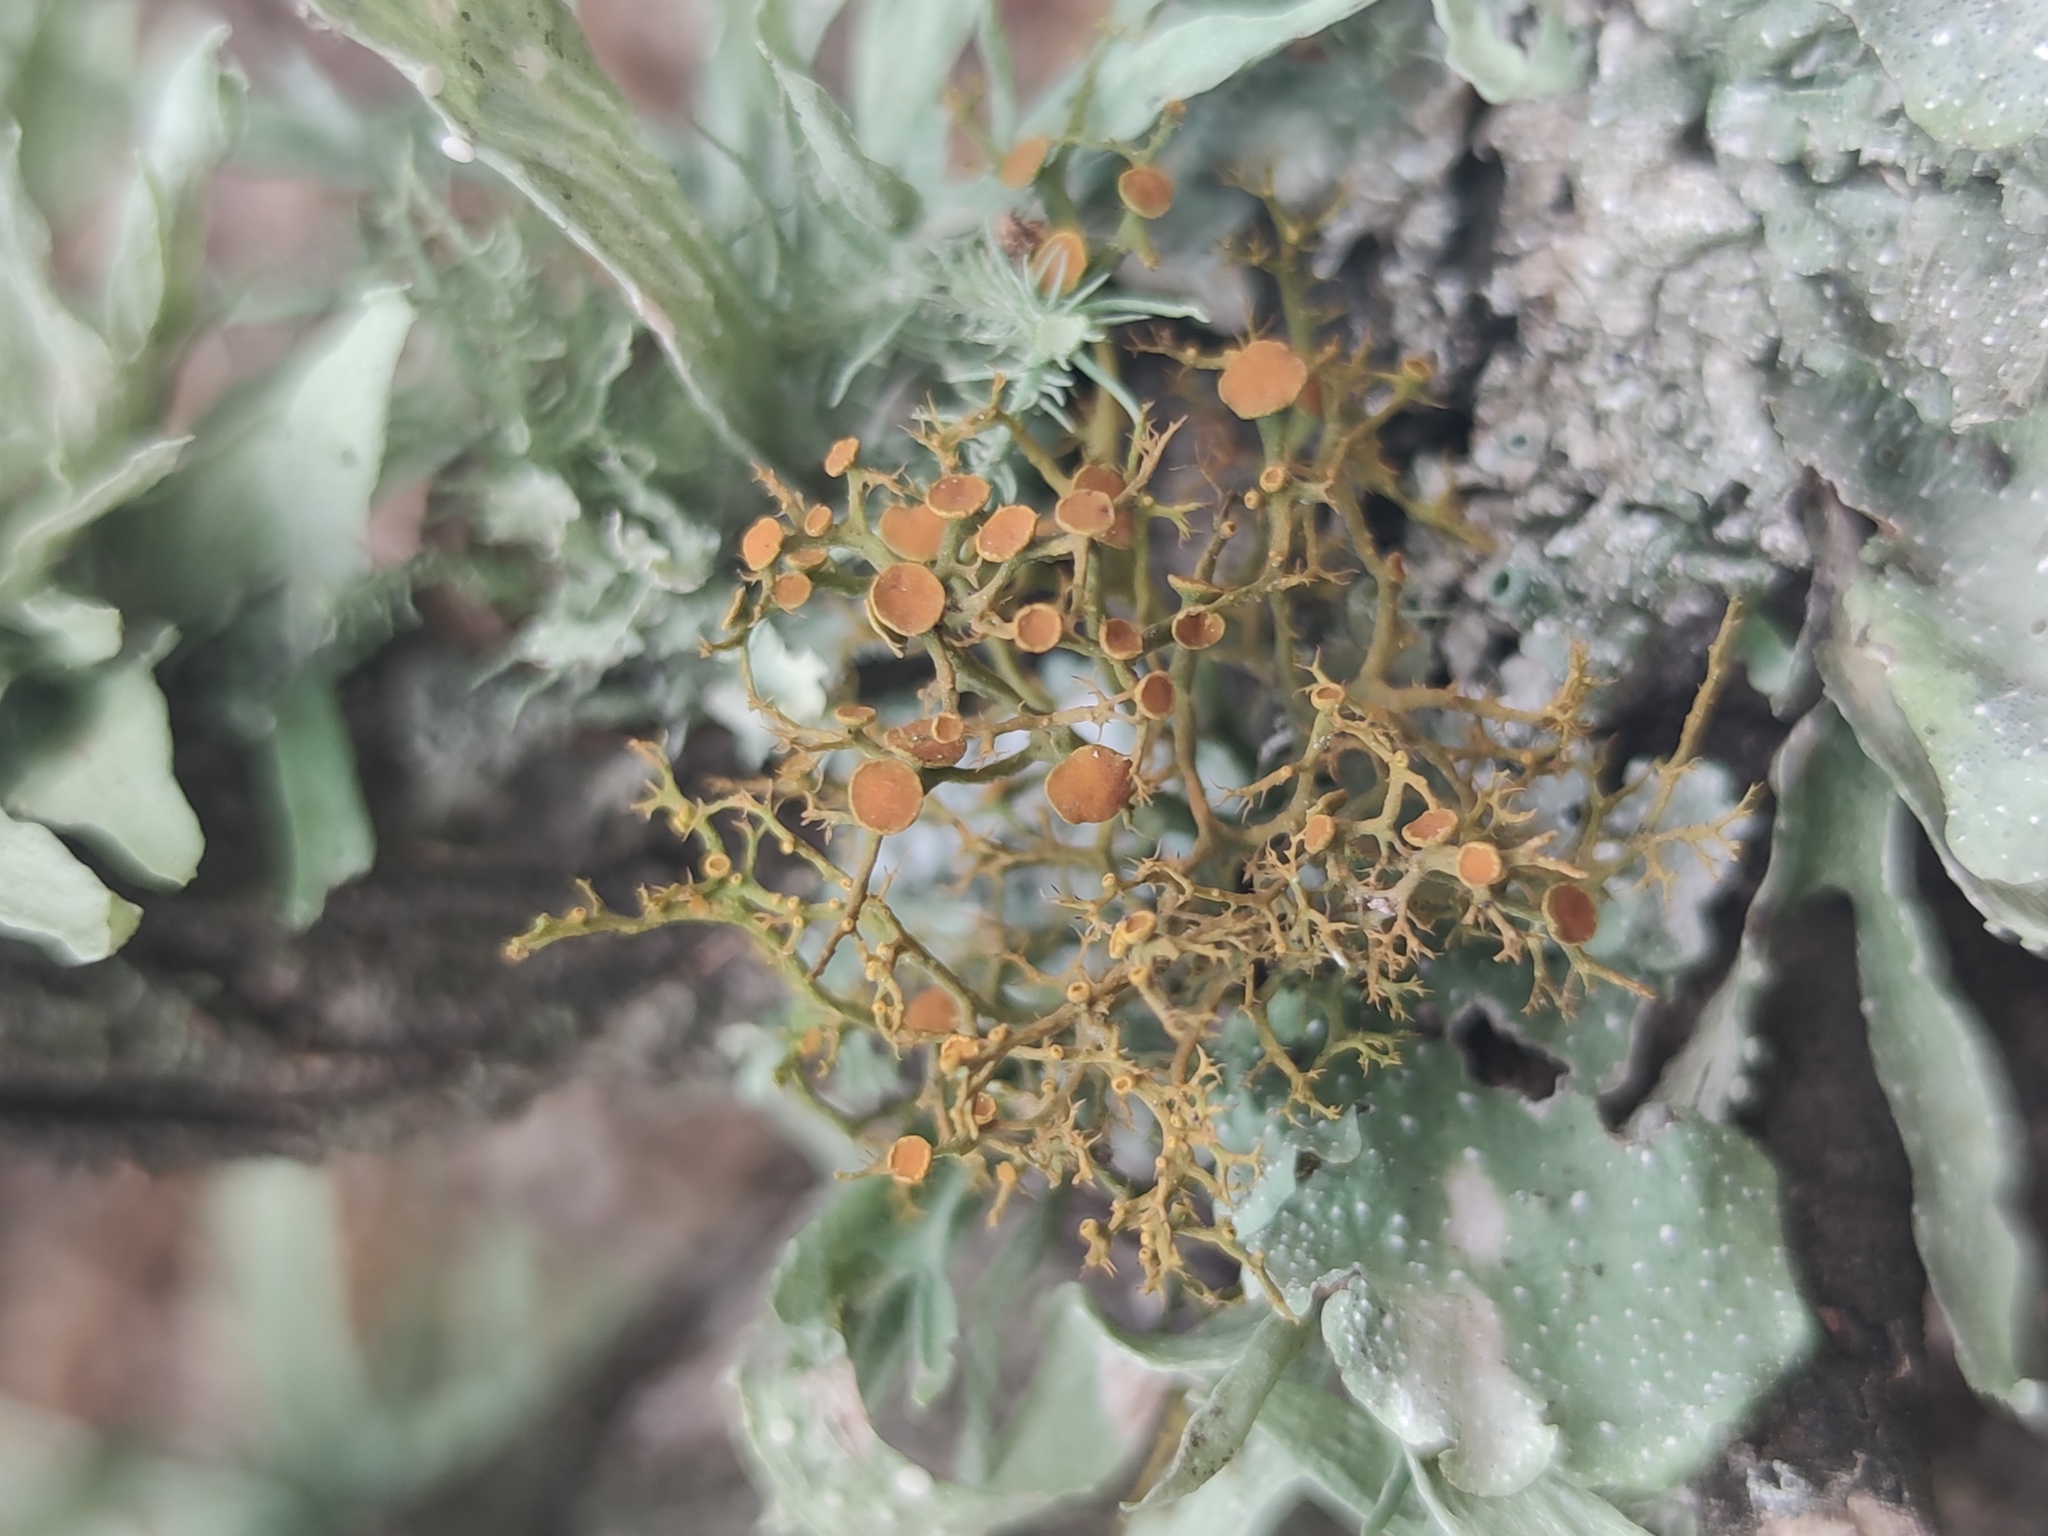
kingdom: Fungi
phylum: Ascomycota
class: Lecanoromycetes
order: Teloschistales
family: Teloschistaceae
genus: Teloschistes
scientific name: Teloschistes exilis
